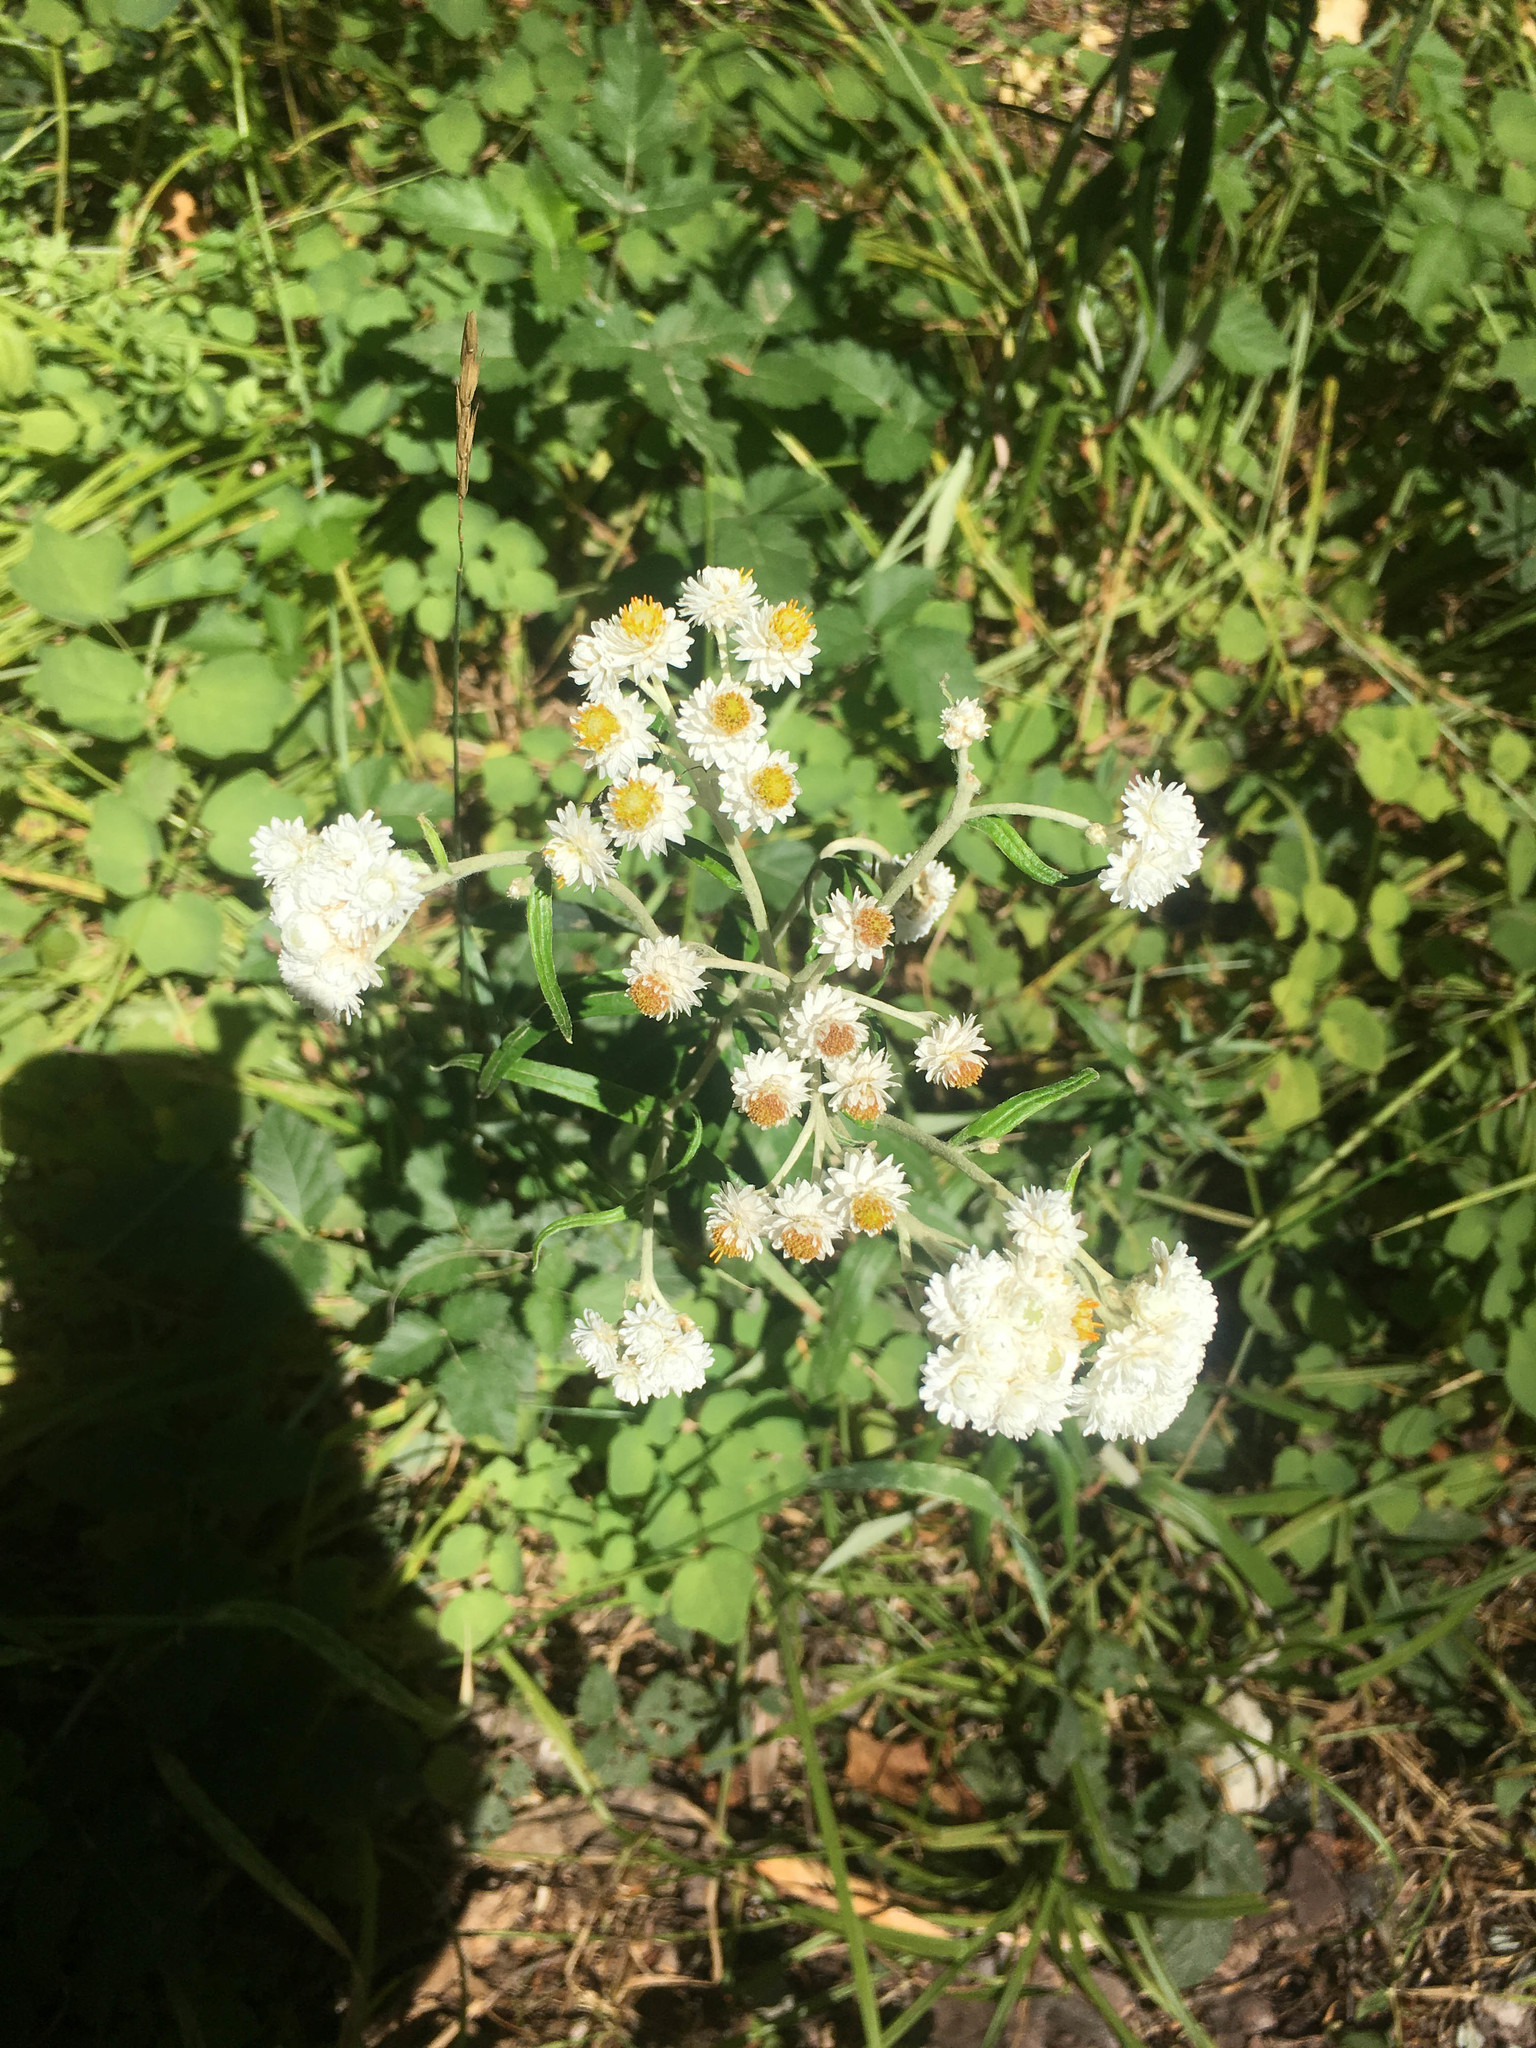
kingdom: Plantae
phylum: Tracheophyta
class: Magnoliopsida
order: Asterales
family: Asteraceae
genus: Anaphalis
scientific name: Anaphalis margaritacea
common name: Pearly everlasting
